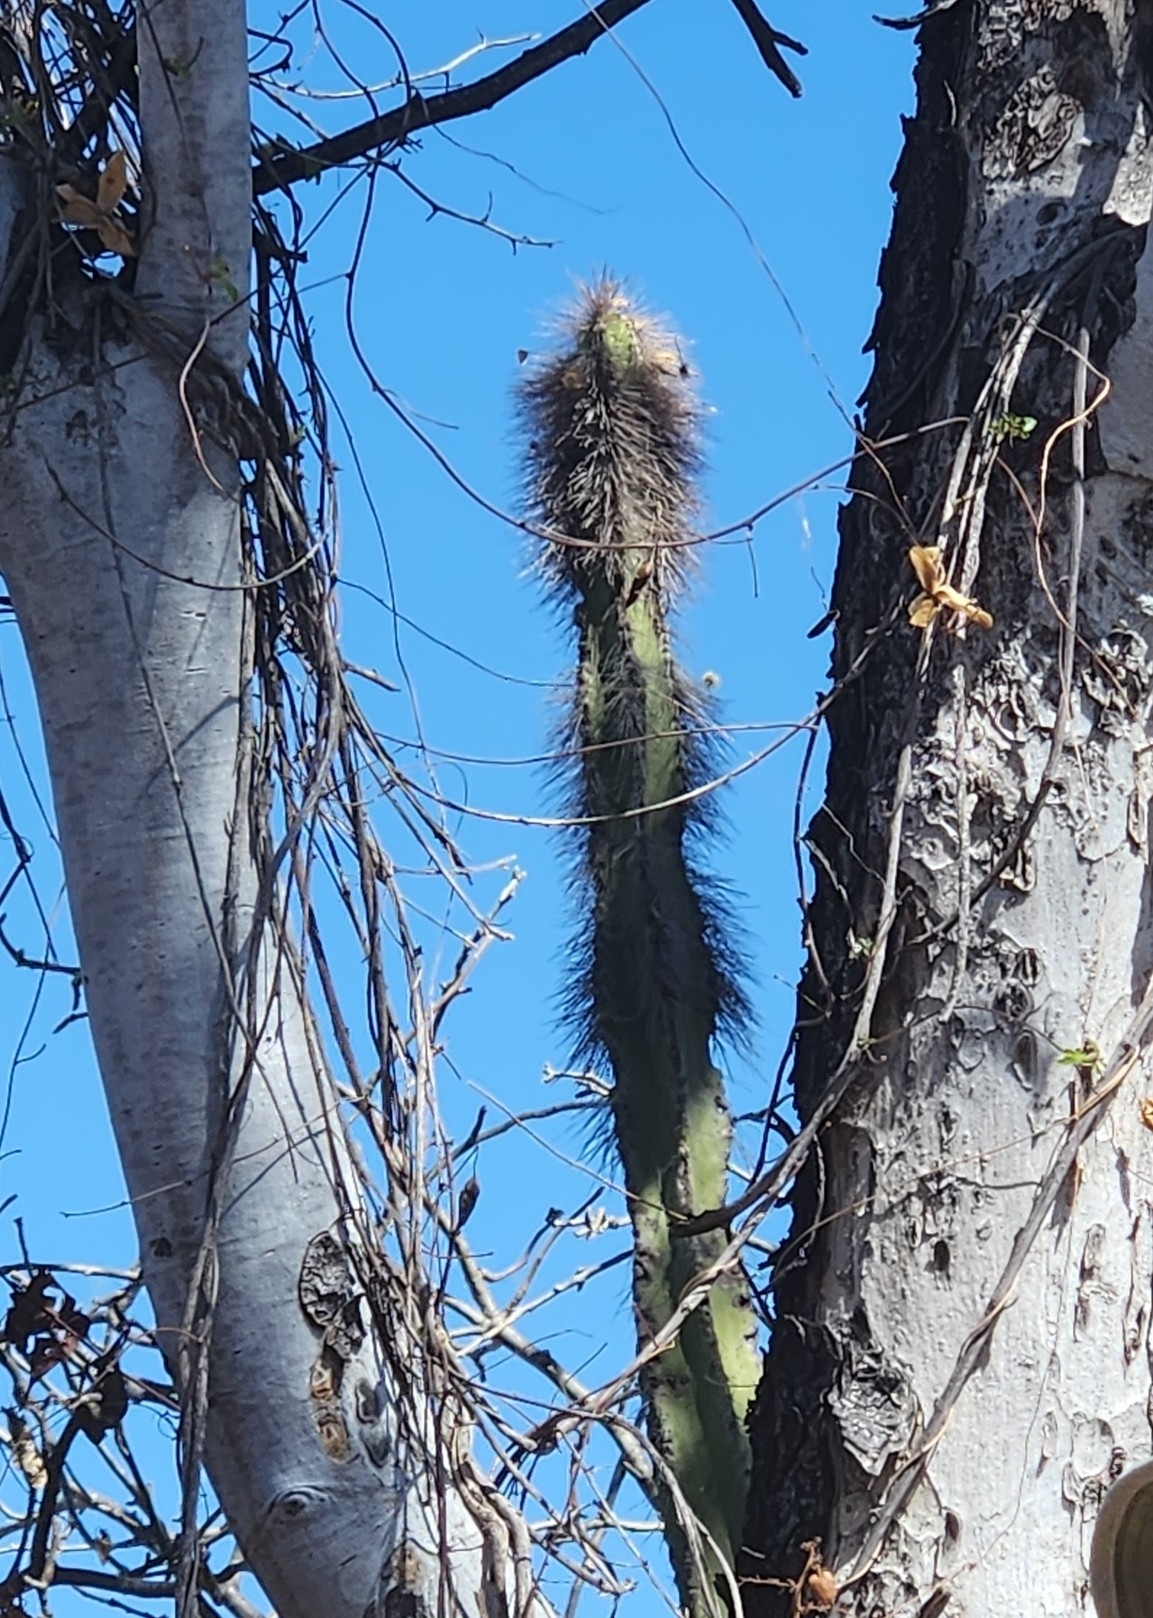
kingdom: Plantae
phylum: Tracheophyta
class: Magnoliopsida
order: Caryophyllales
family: Cactaceae
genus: Pachycereus
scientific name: Pachycereus schottii
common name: Senita cactus
